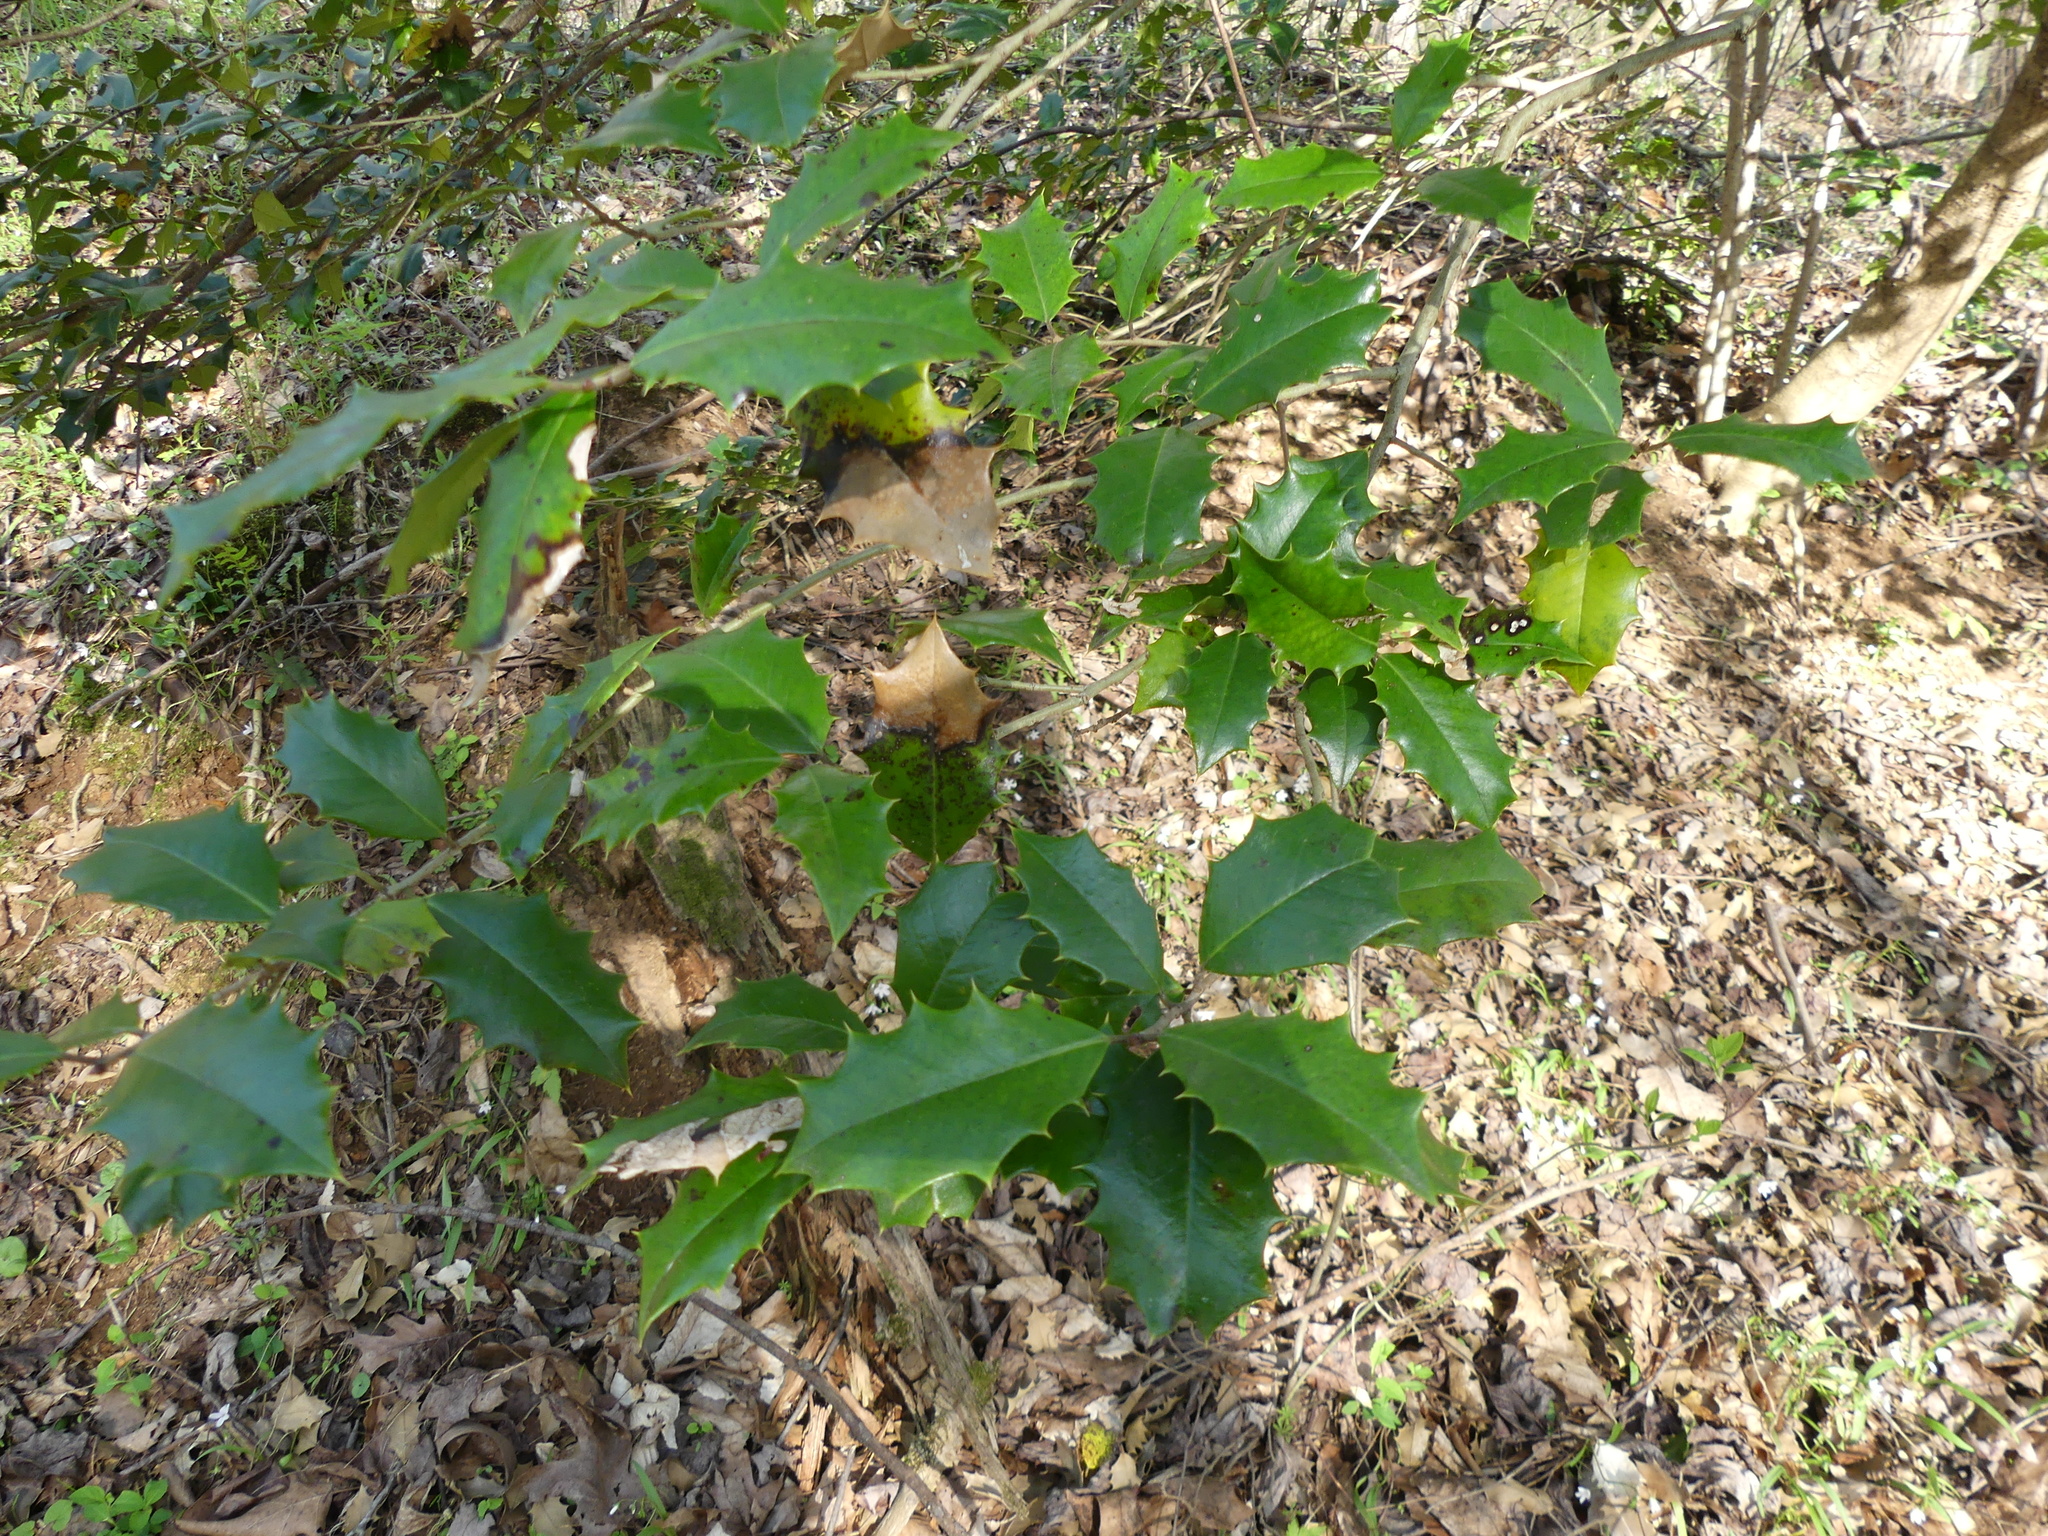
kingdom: Plantae
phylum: Tracheophyta
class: Magnoliopsida
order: Aquifoliales
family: Aquifoliaceae
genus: Ilex
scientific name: Ilex opaca
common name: American holly
